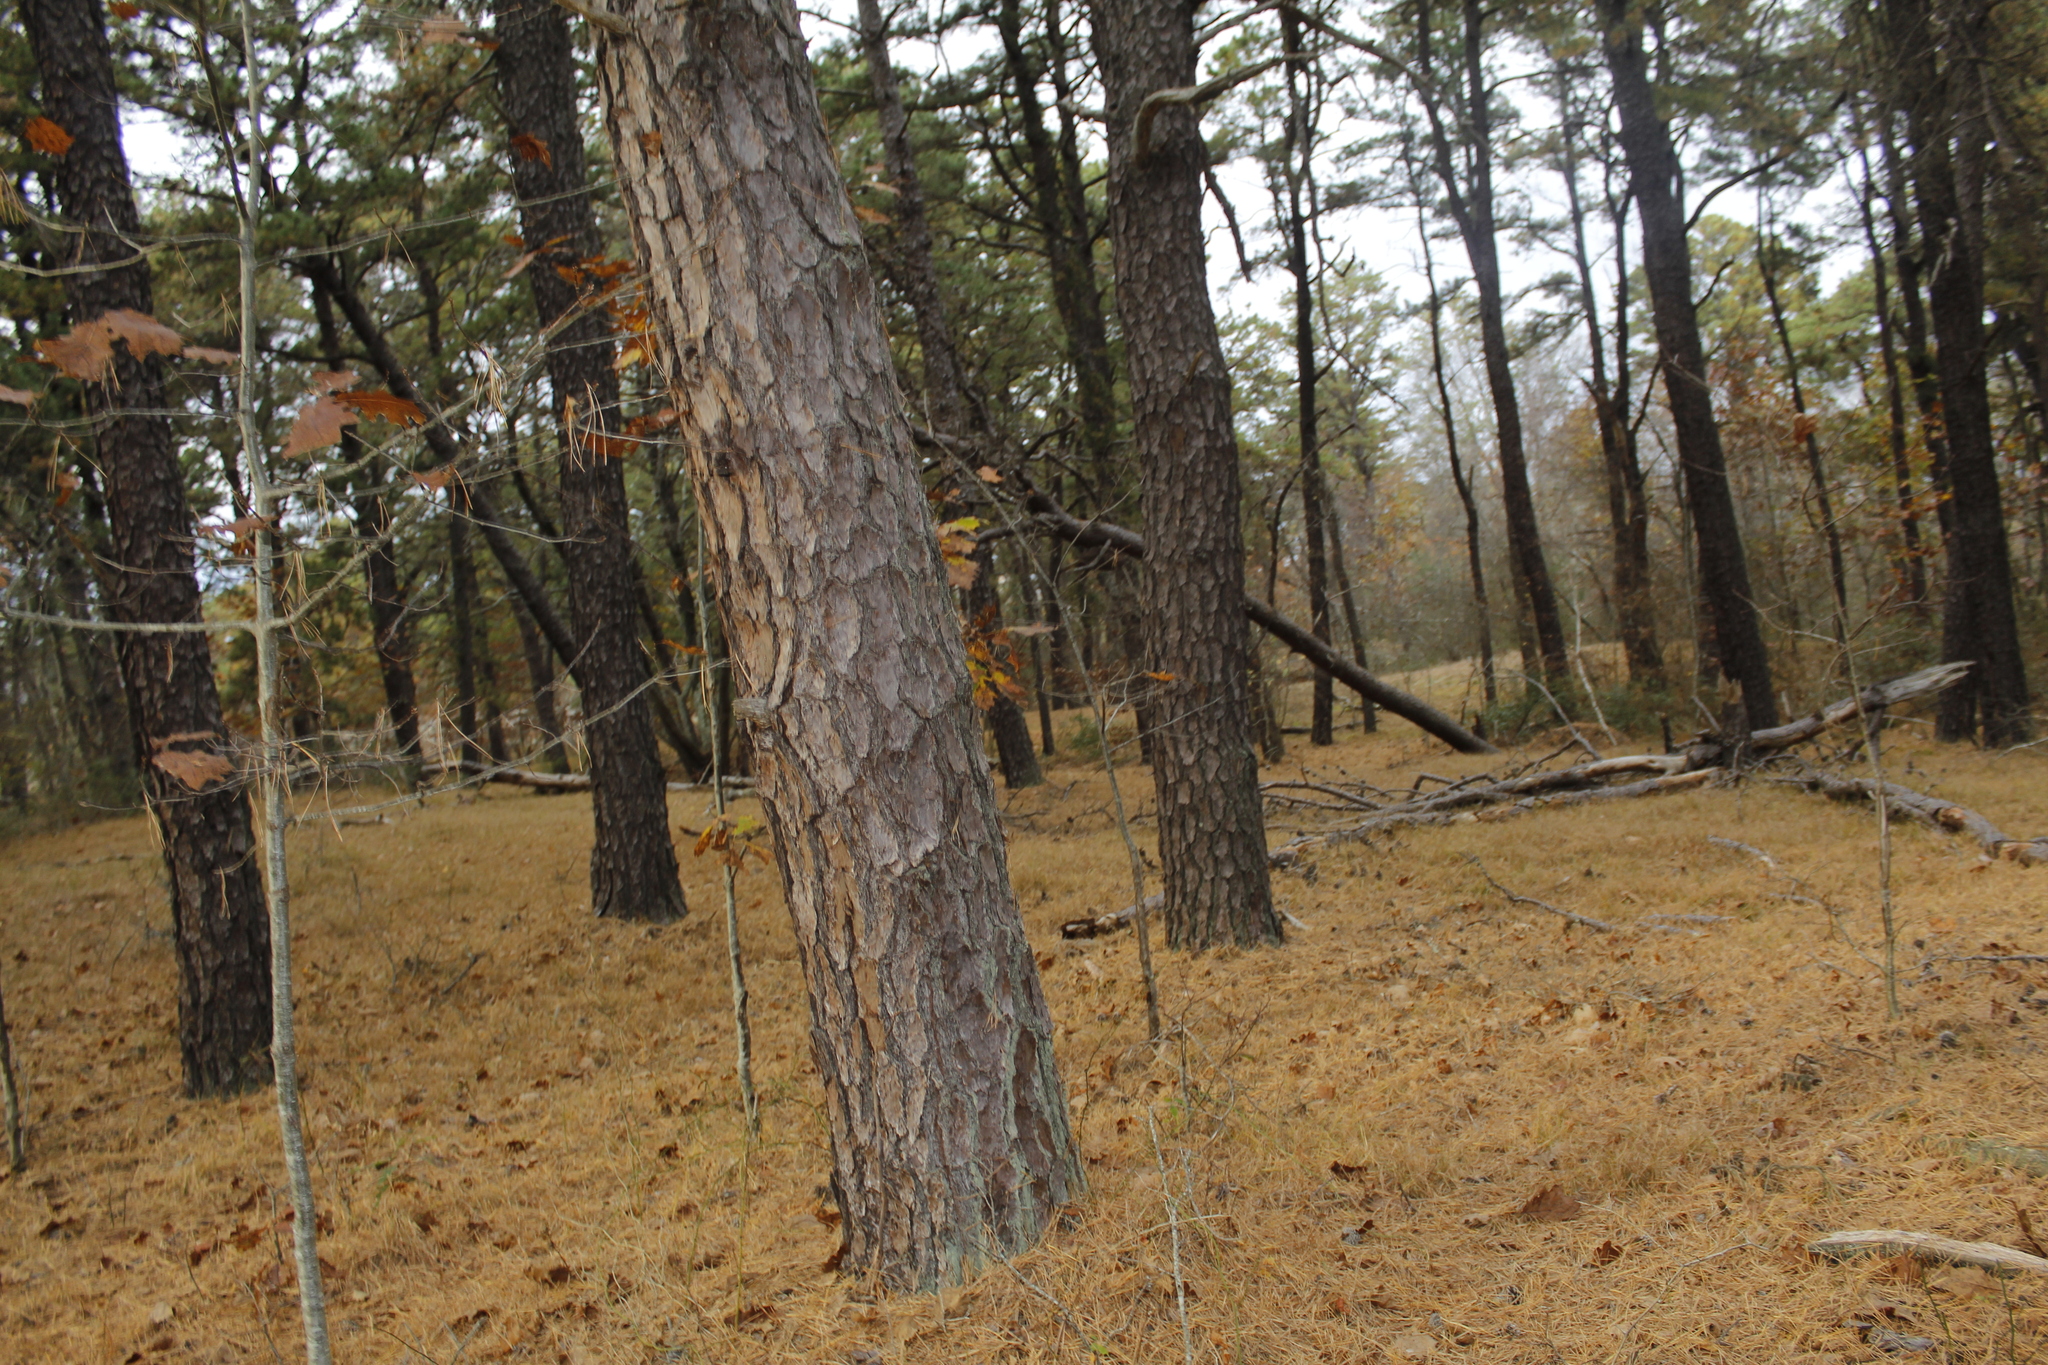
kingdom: Plantae
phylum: Tracheophyta
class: Pinopsida
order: Pinales
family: Pinaceae
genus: Pinus
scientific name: Pinus rigida
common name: Pitch pine
